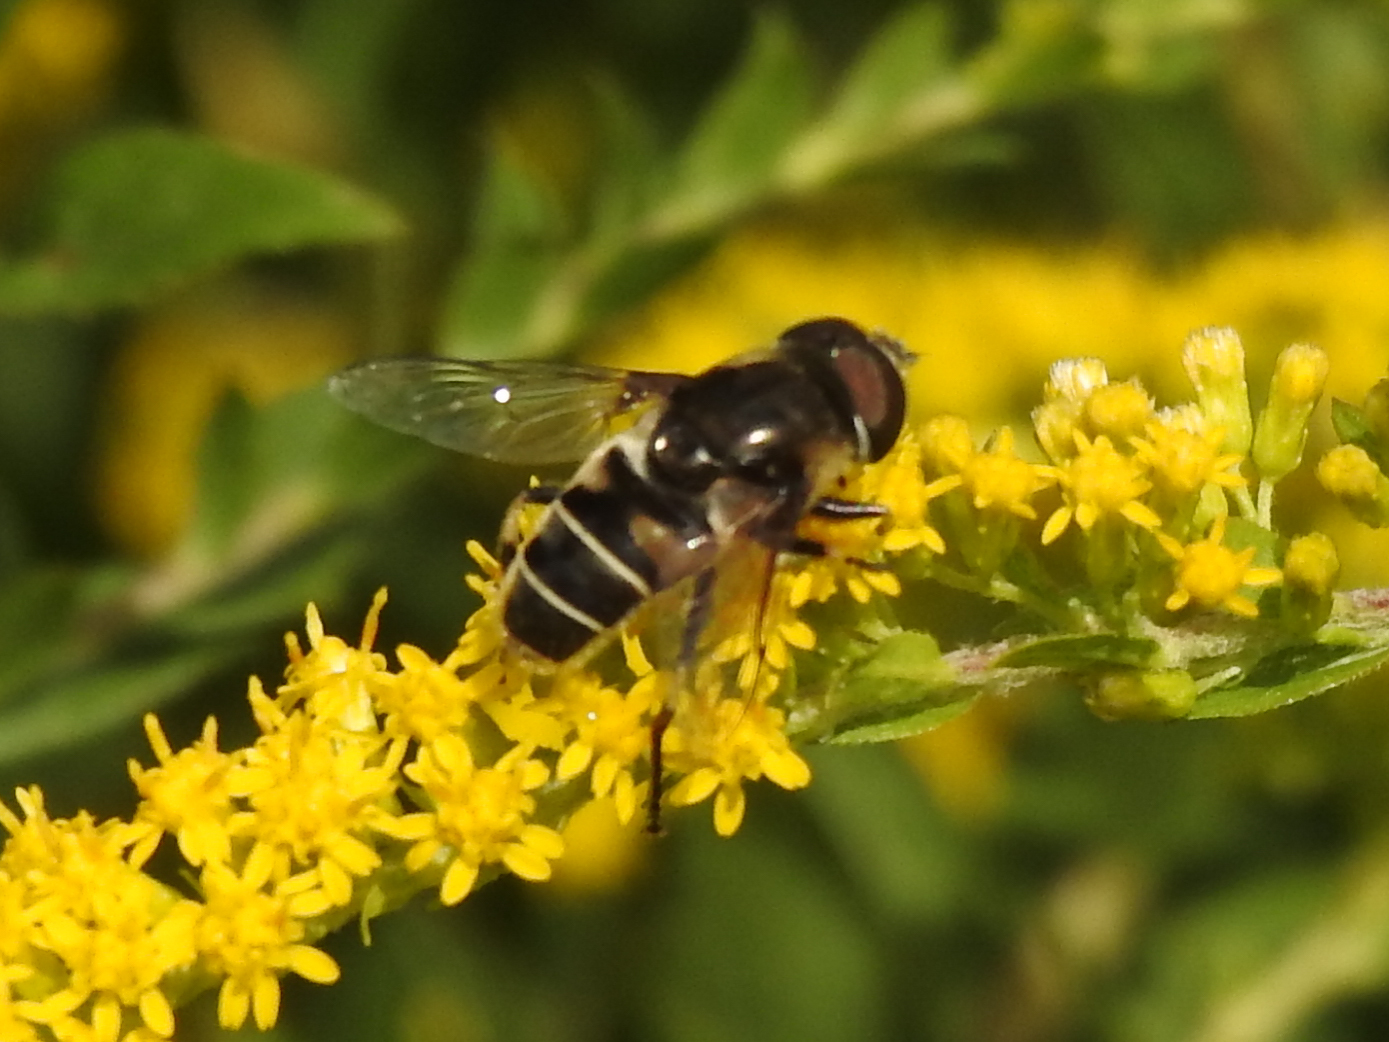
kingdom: Animalia
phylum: Arthropoda
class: Insecta
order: Diptera
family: Syrphidae
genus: Eristalis
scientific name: Eristalis dimidiata
